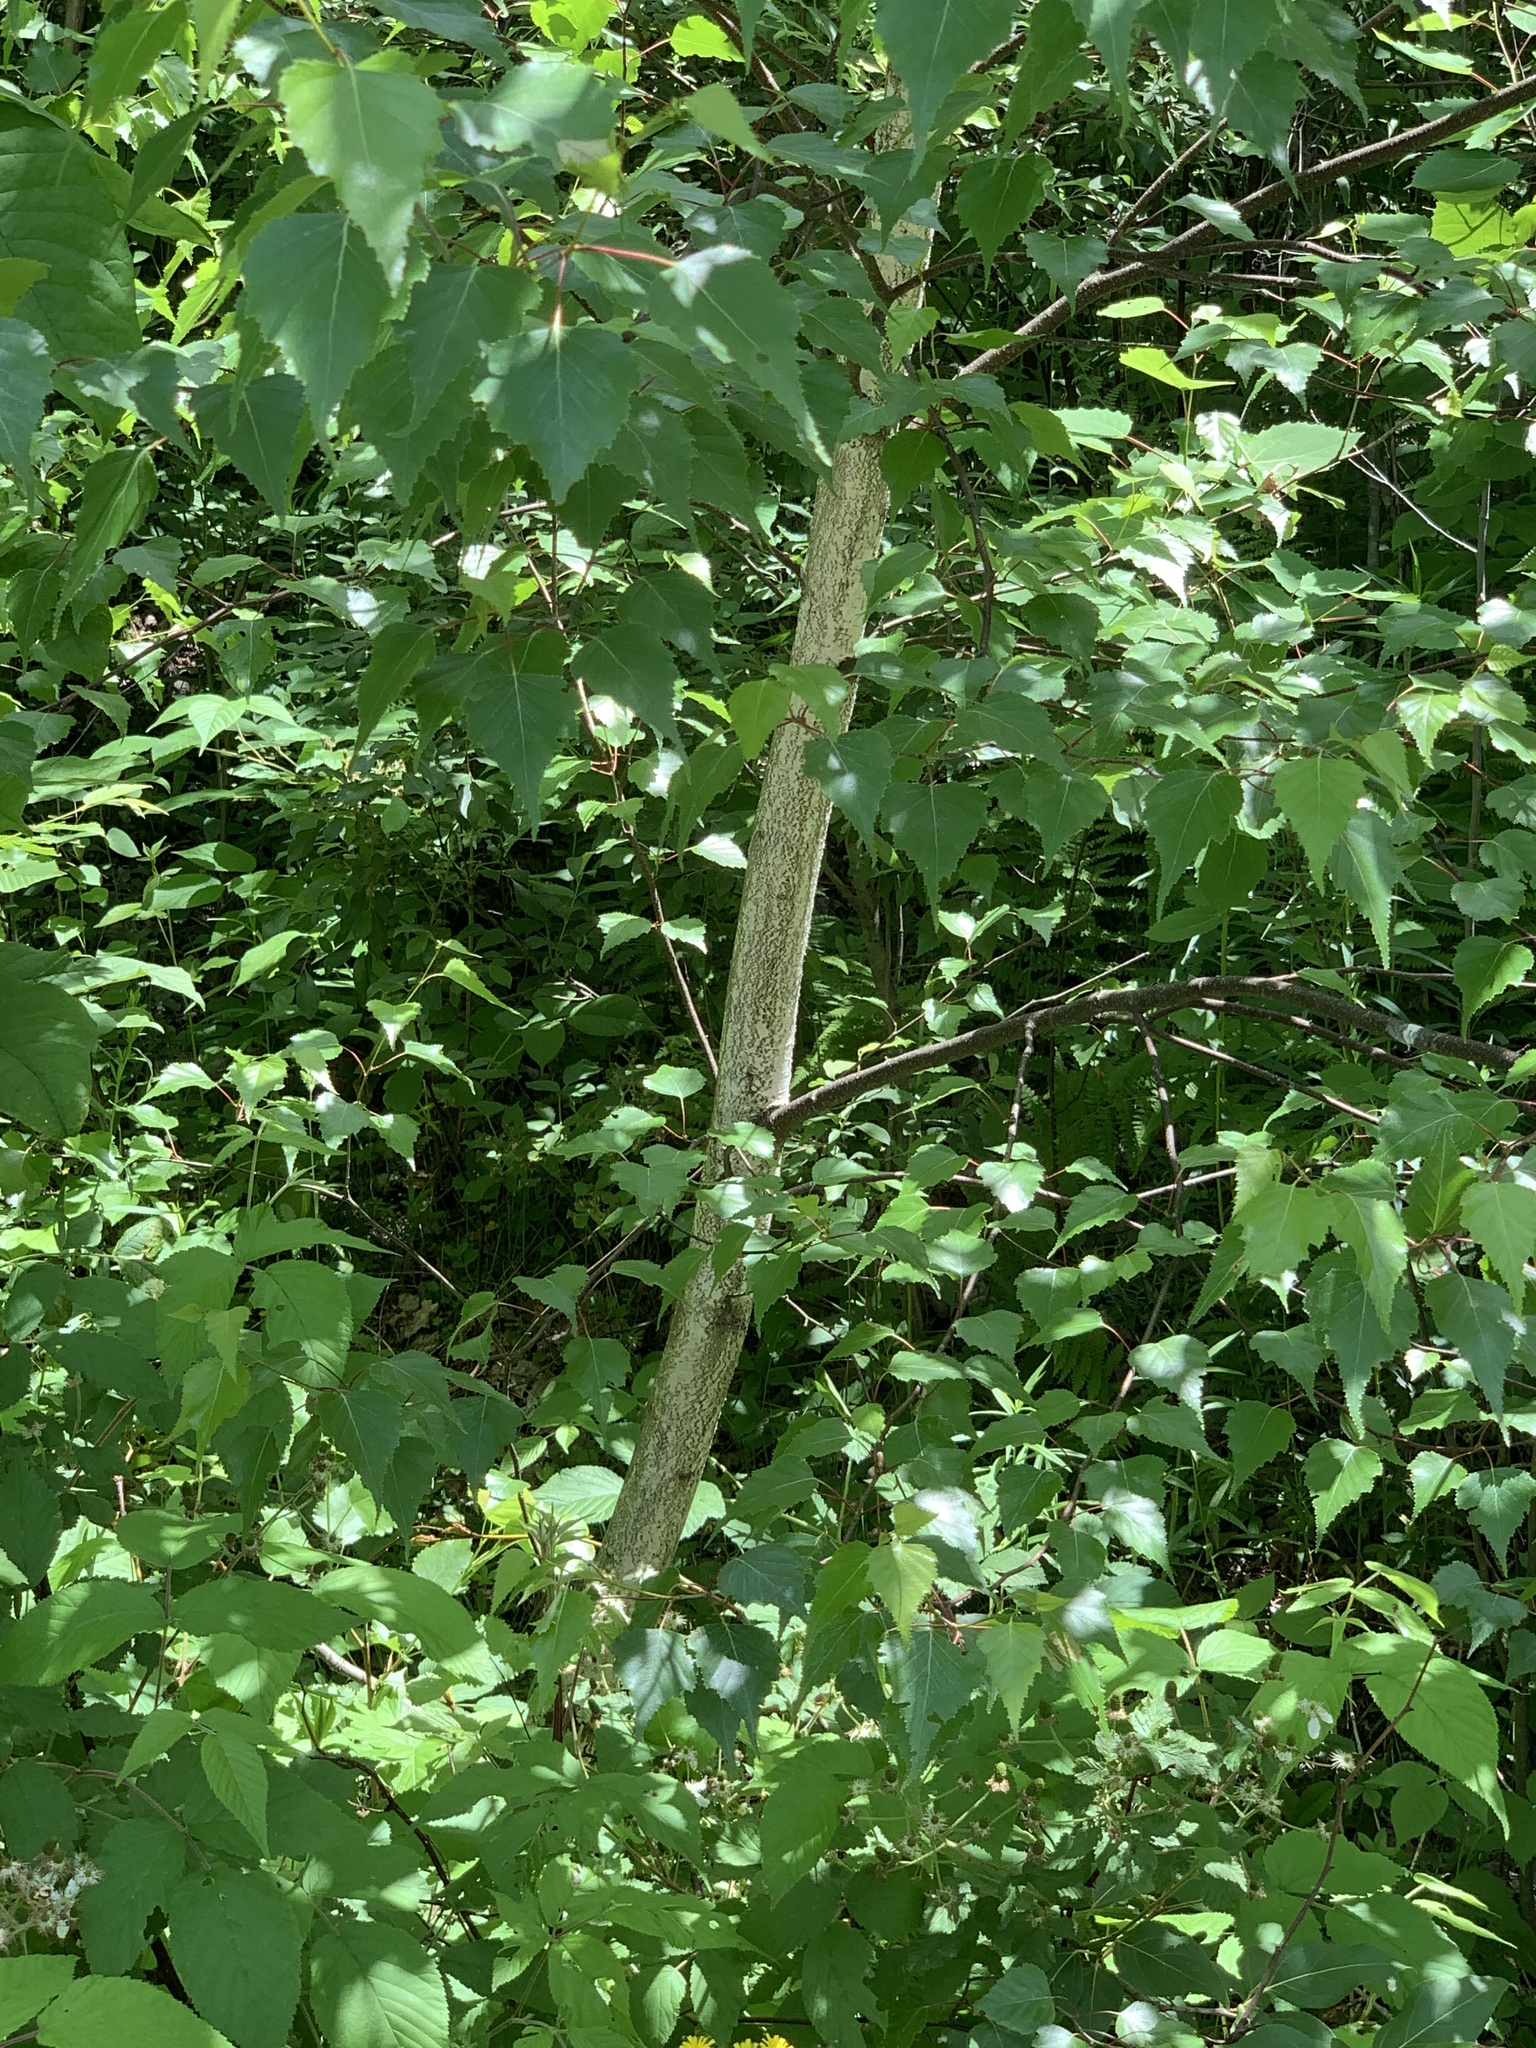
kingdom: Plantae
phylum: Tracheophyta
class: Magnoliopsida
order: Fagales
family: Betulaceae
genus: Betula
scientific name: Betula populifolia
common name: Fire birch
